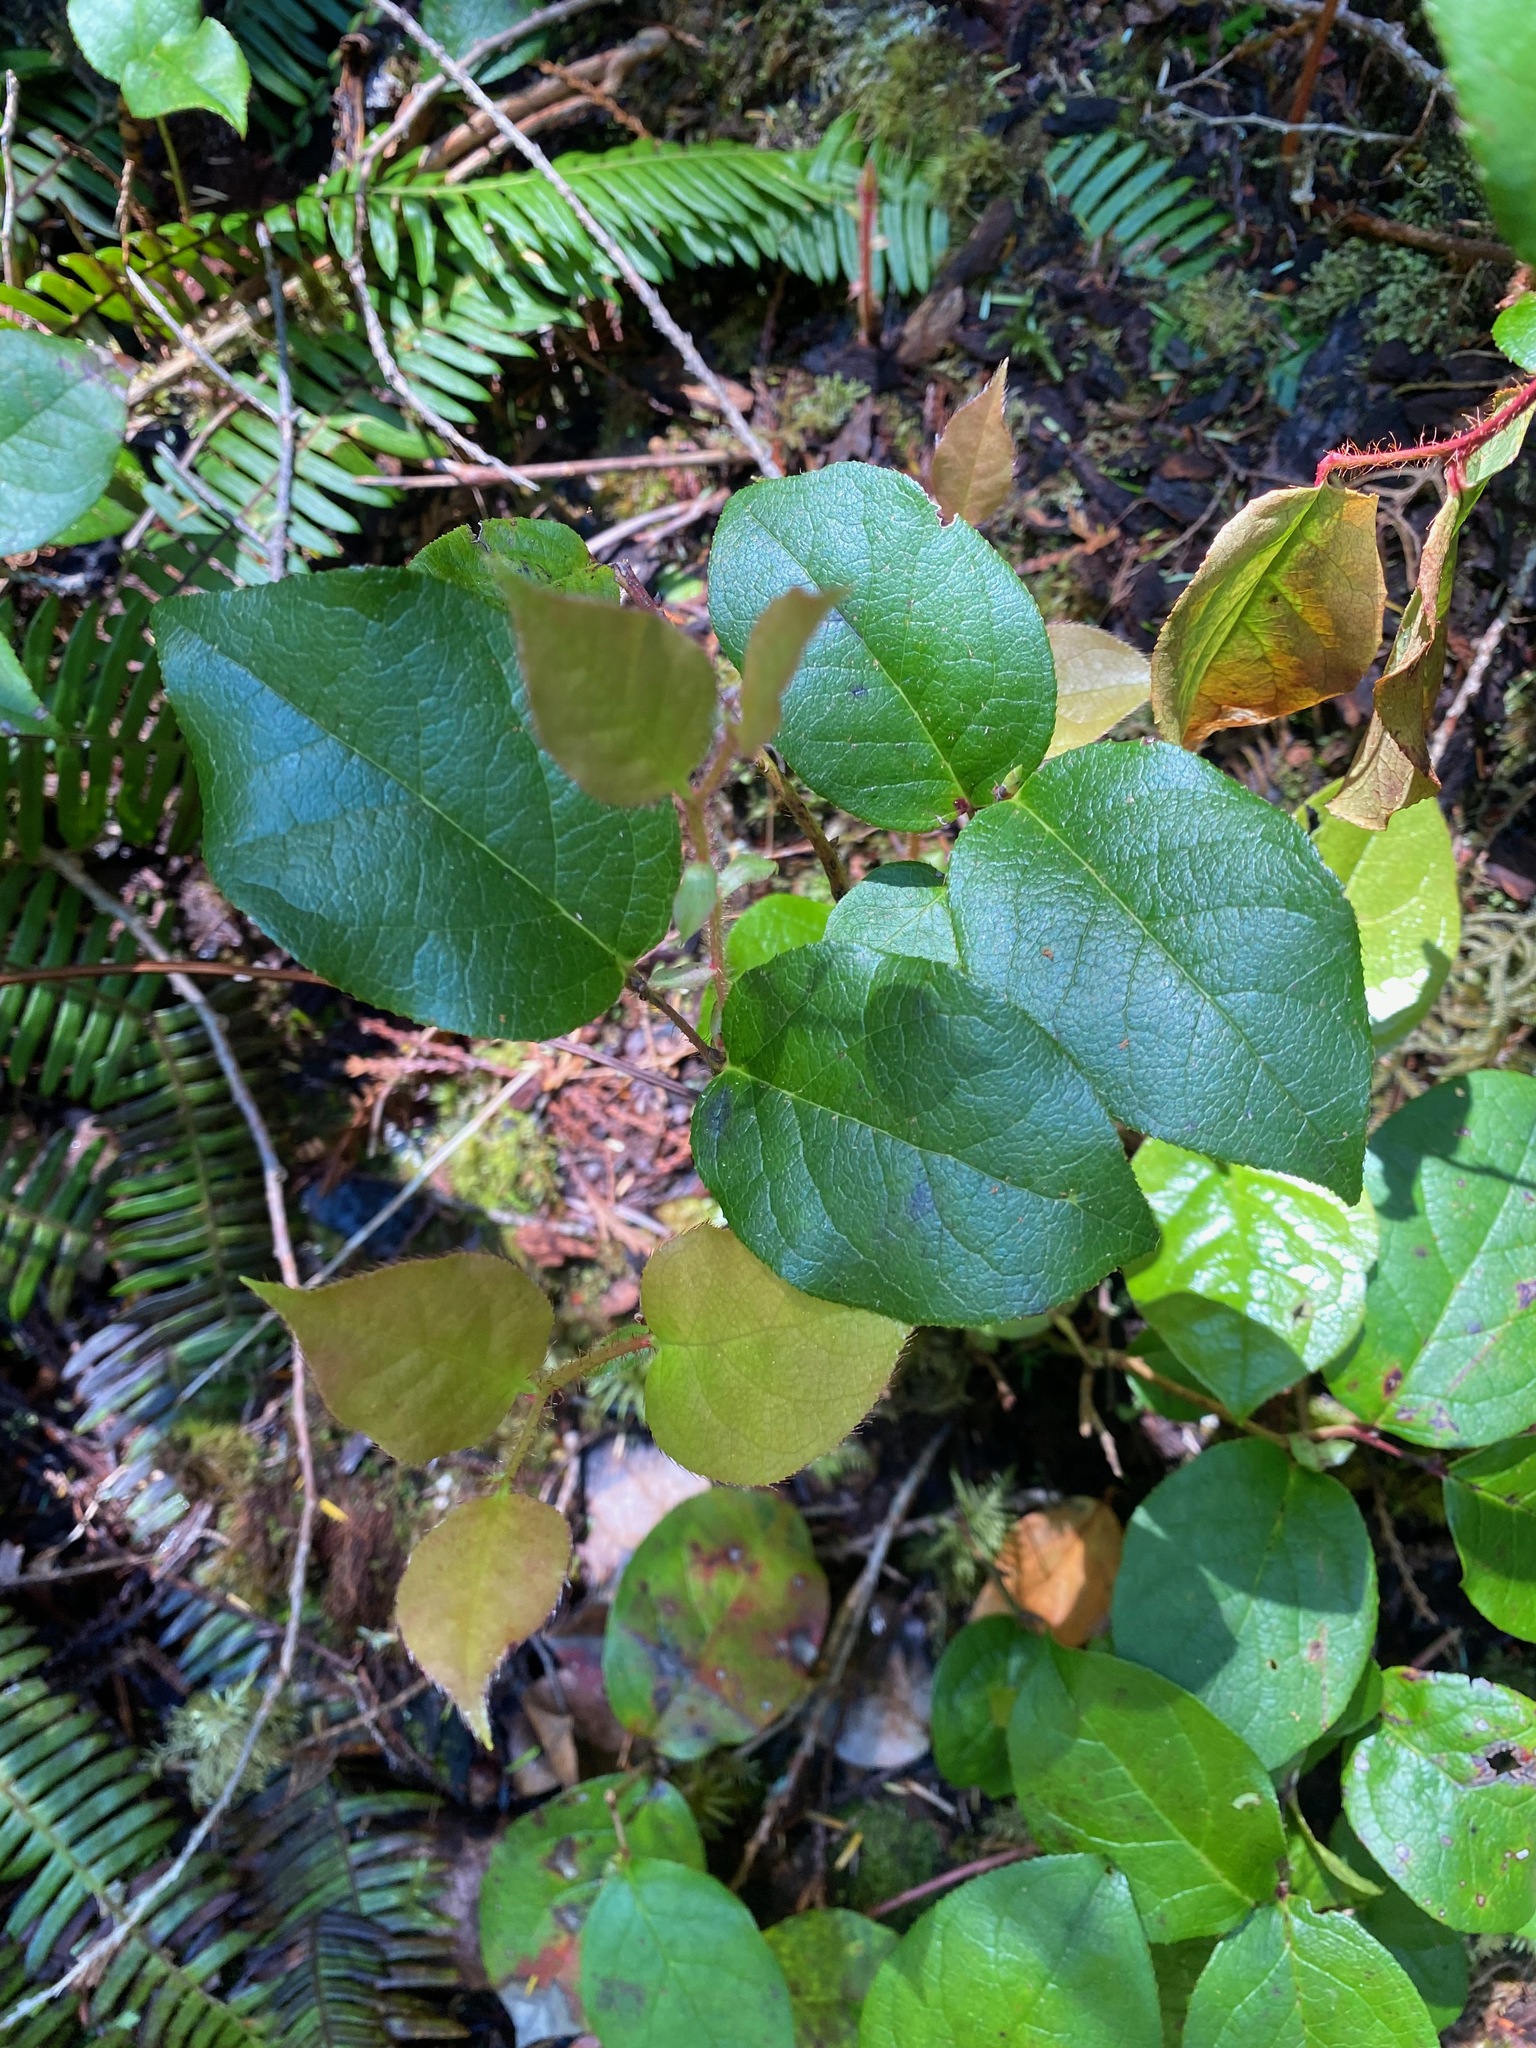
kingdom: Plantae
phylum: Tracheophyta
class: Magnoliopsida
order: Ericales
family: Ericaceae
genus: Gaultheria
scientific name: Gaultheria shallon
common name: Shallon
